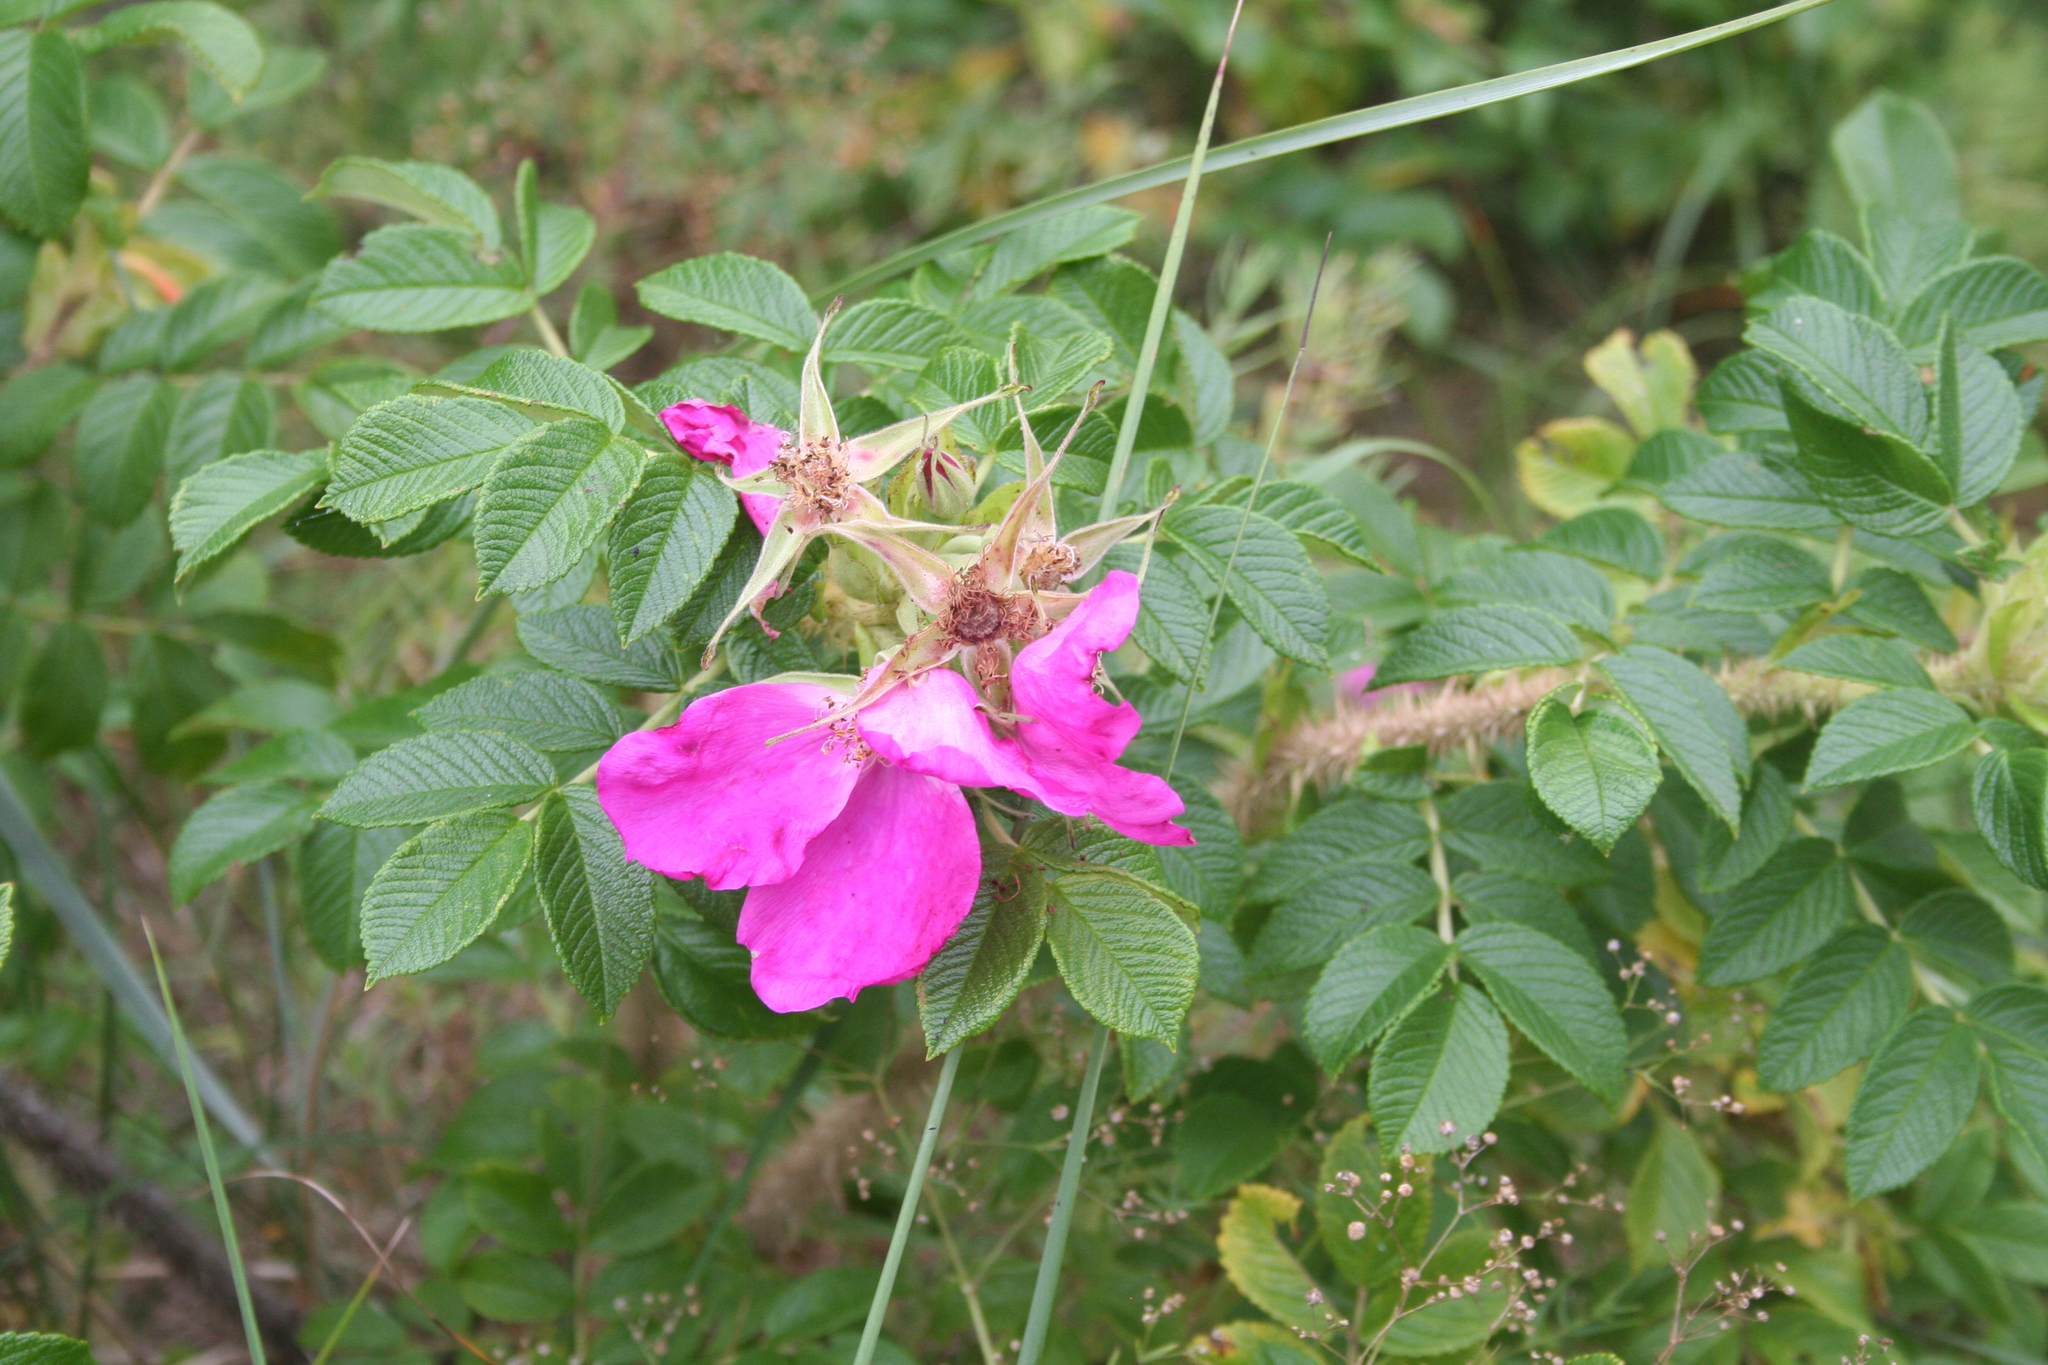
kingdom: Plantae
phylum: Tracheophyta
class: Magnoliopsida
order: Rosales
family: Rosaceae
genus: Rosa
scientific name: Rosa rugosa
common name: Japanese rose
